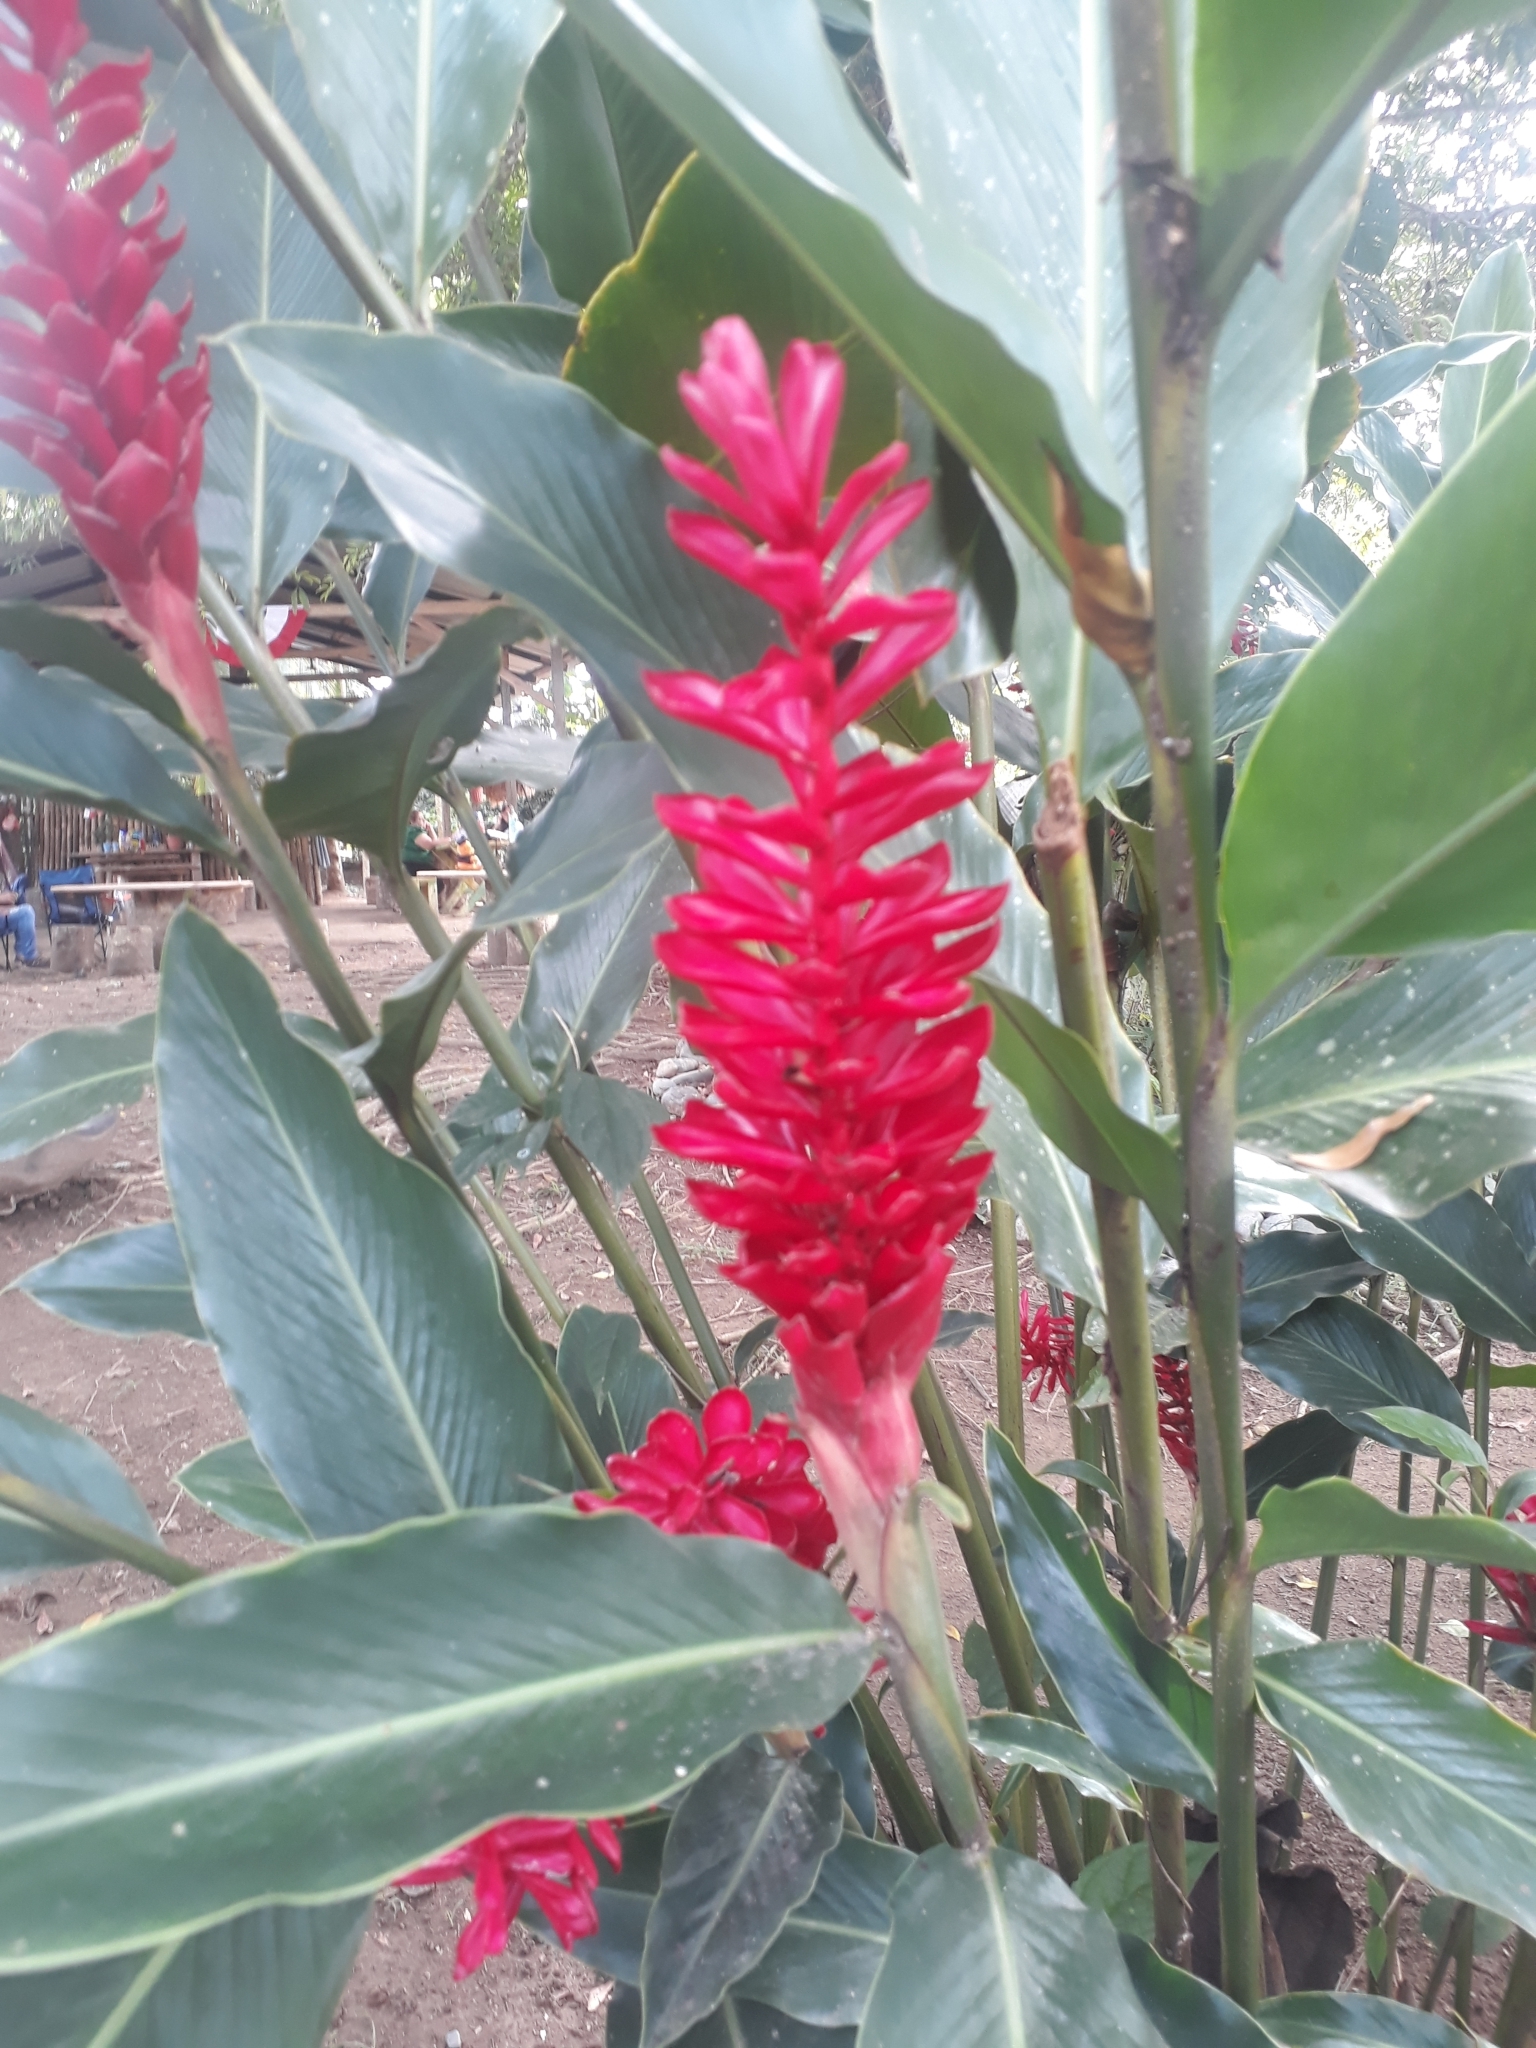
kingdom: Plantae
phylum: Tracheophyta
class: Liliopsida
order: Zingiberales
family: Zingiberaceae
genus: Alpinia
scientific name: Alpinia purpurata
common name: Red ginger
